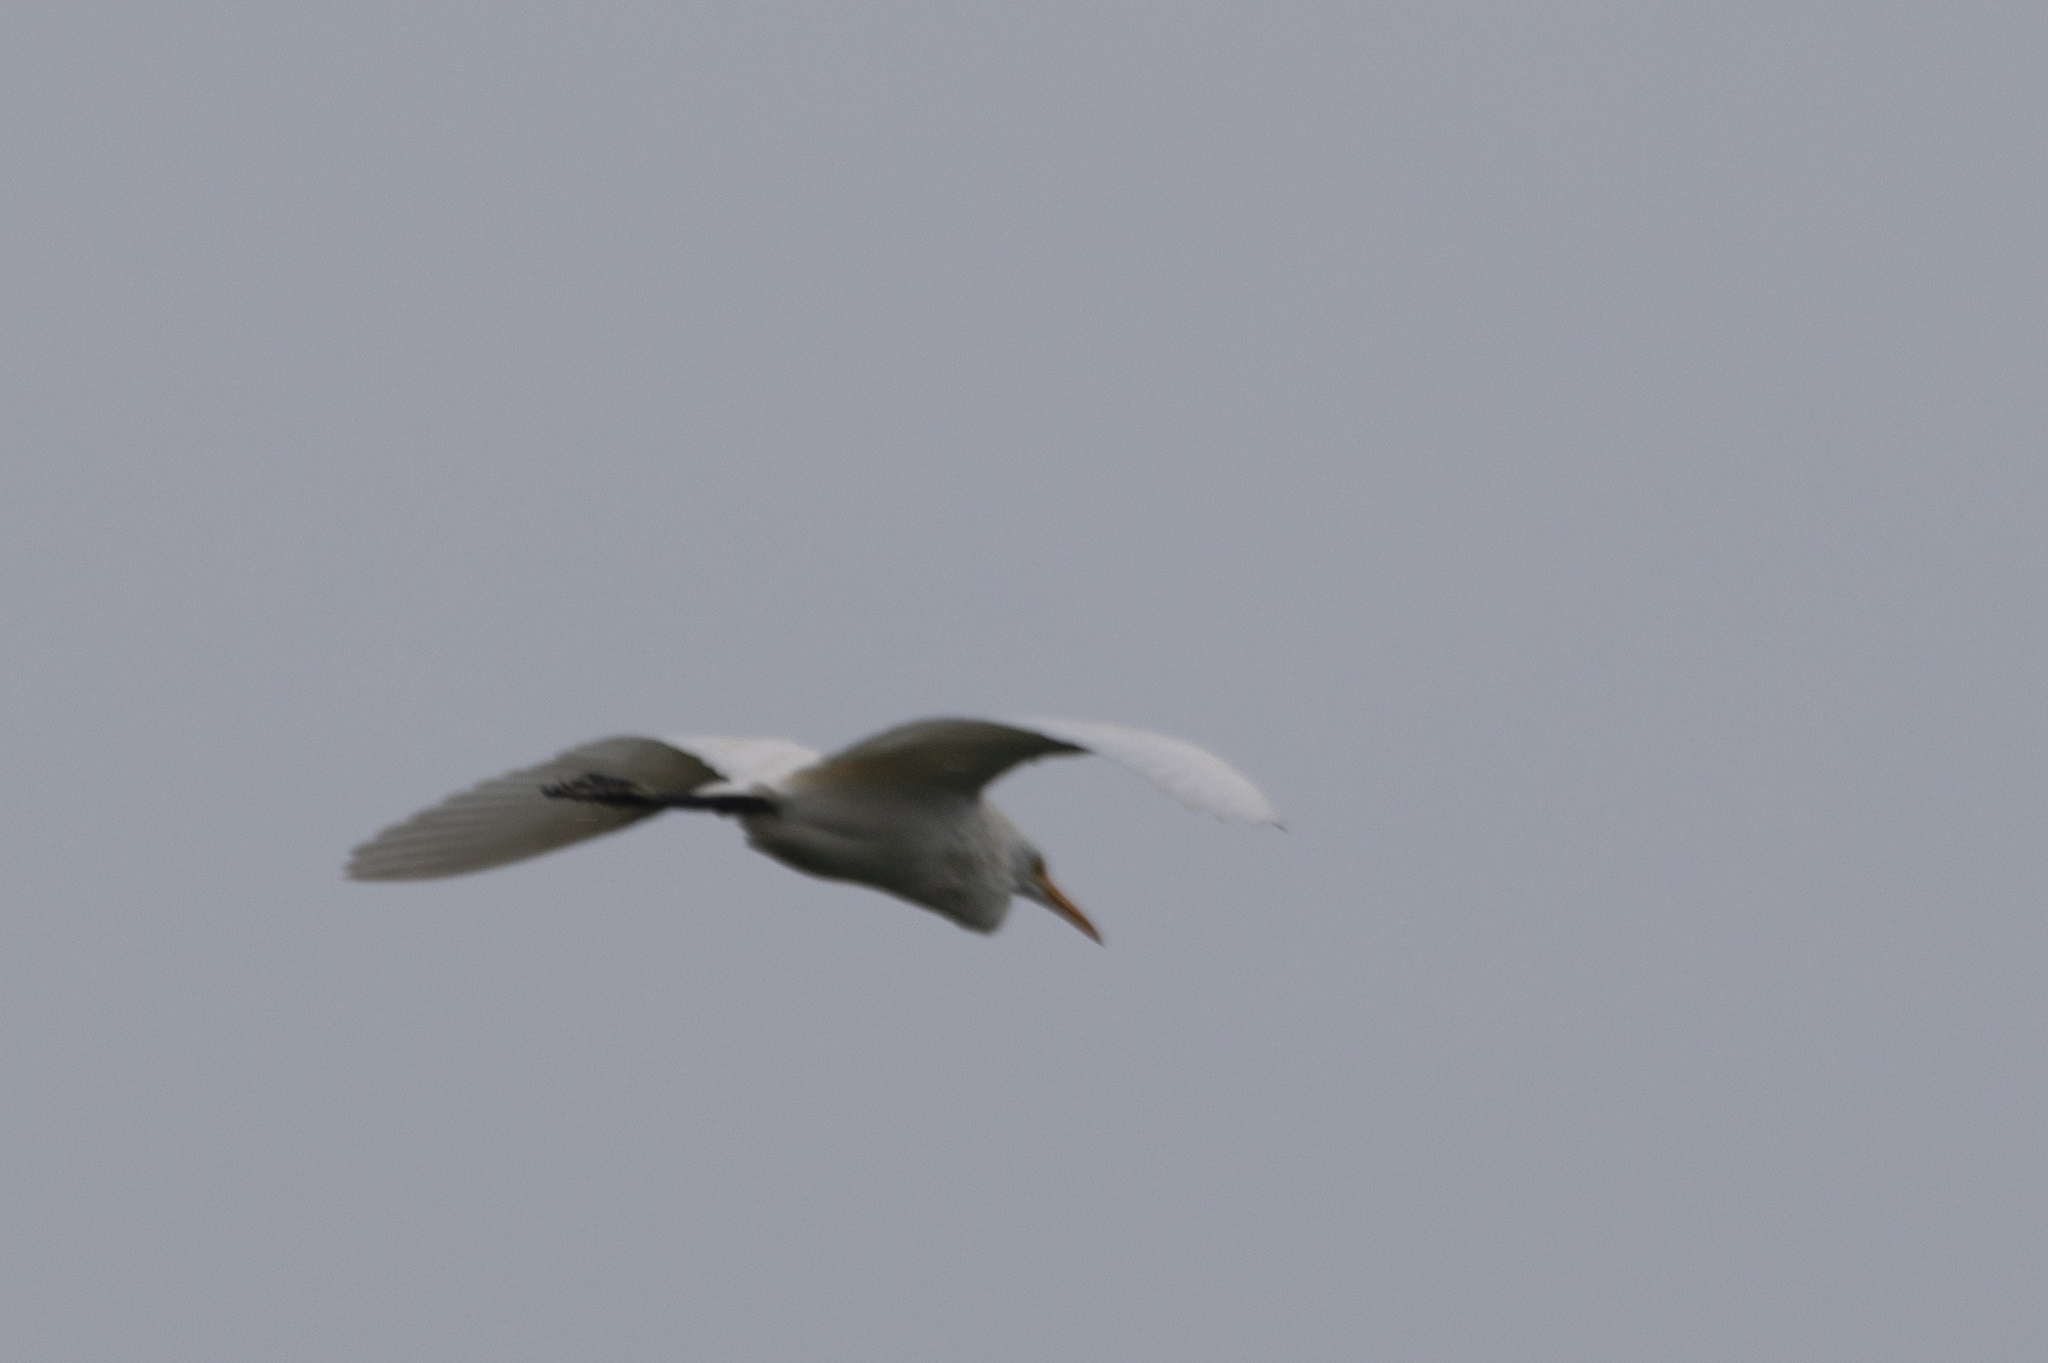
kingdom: Animalia
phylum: Chordata
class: Aves
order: Pelecaniformes
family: Ardeidae
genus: Bubulcus
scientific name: Bubulcus coromandus
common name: Eastern cattle egret
